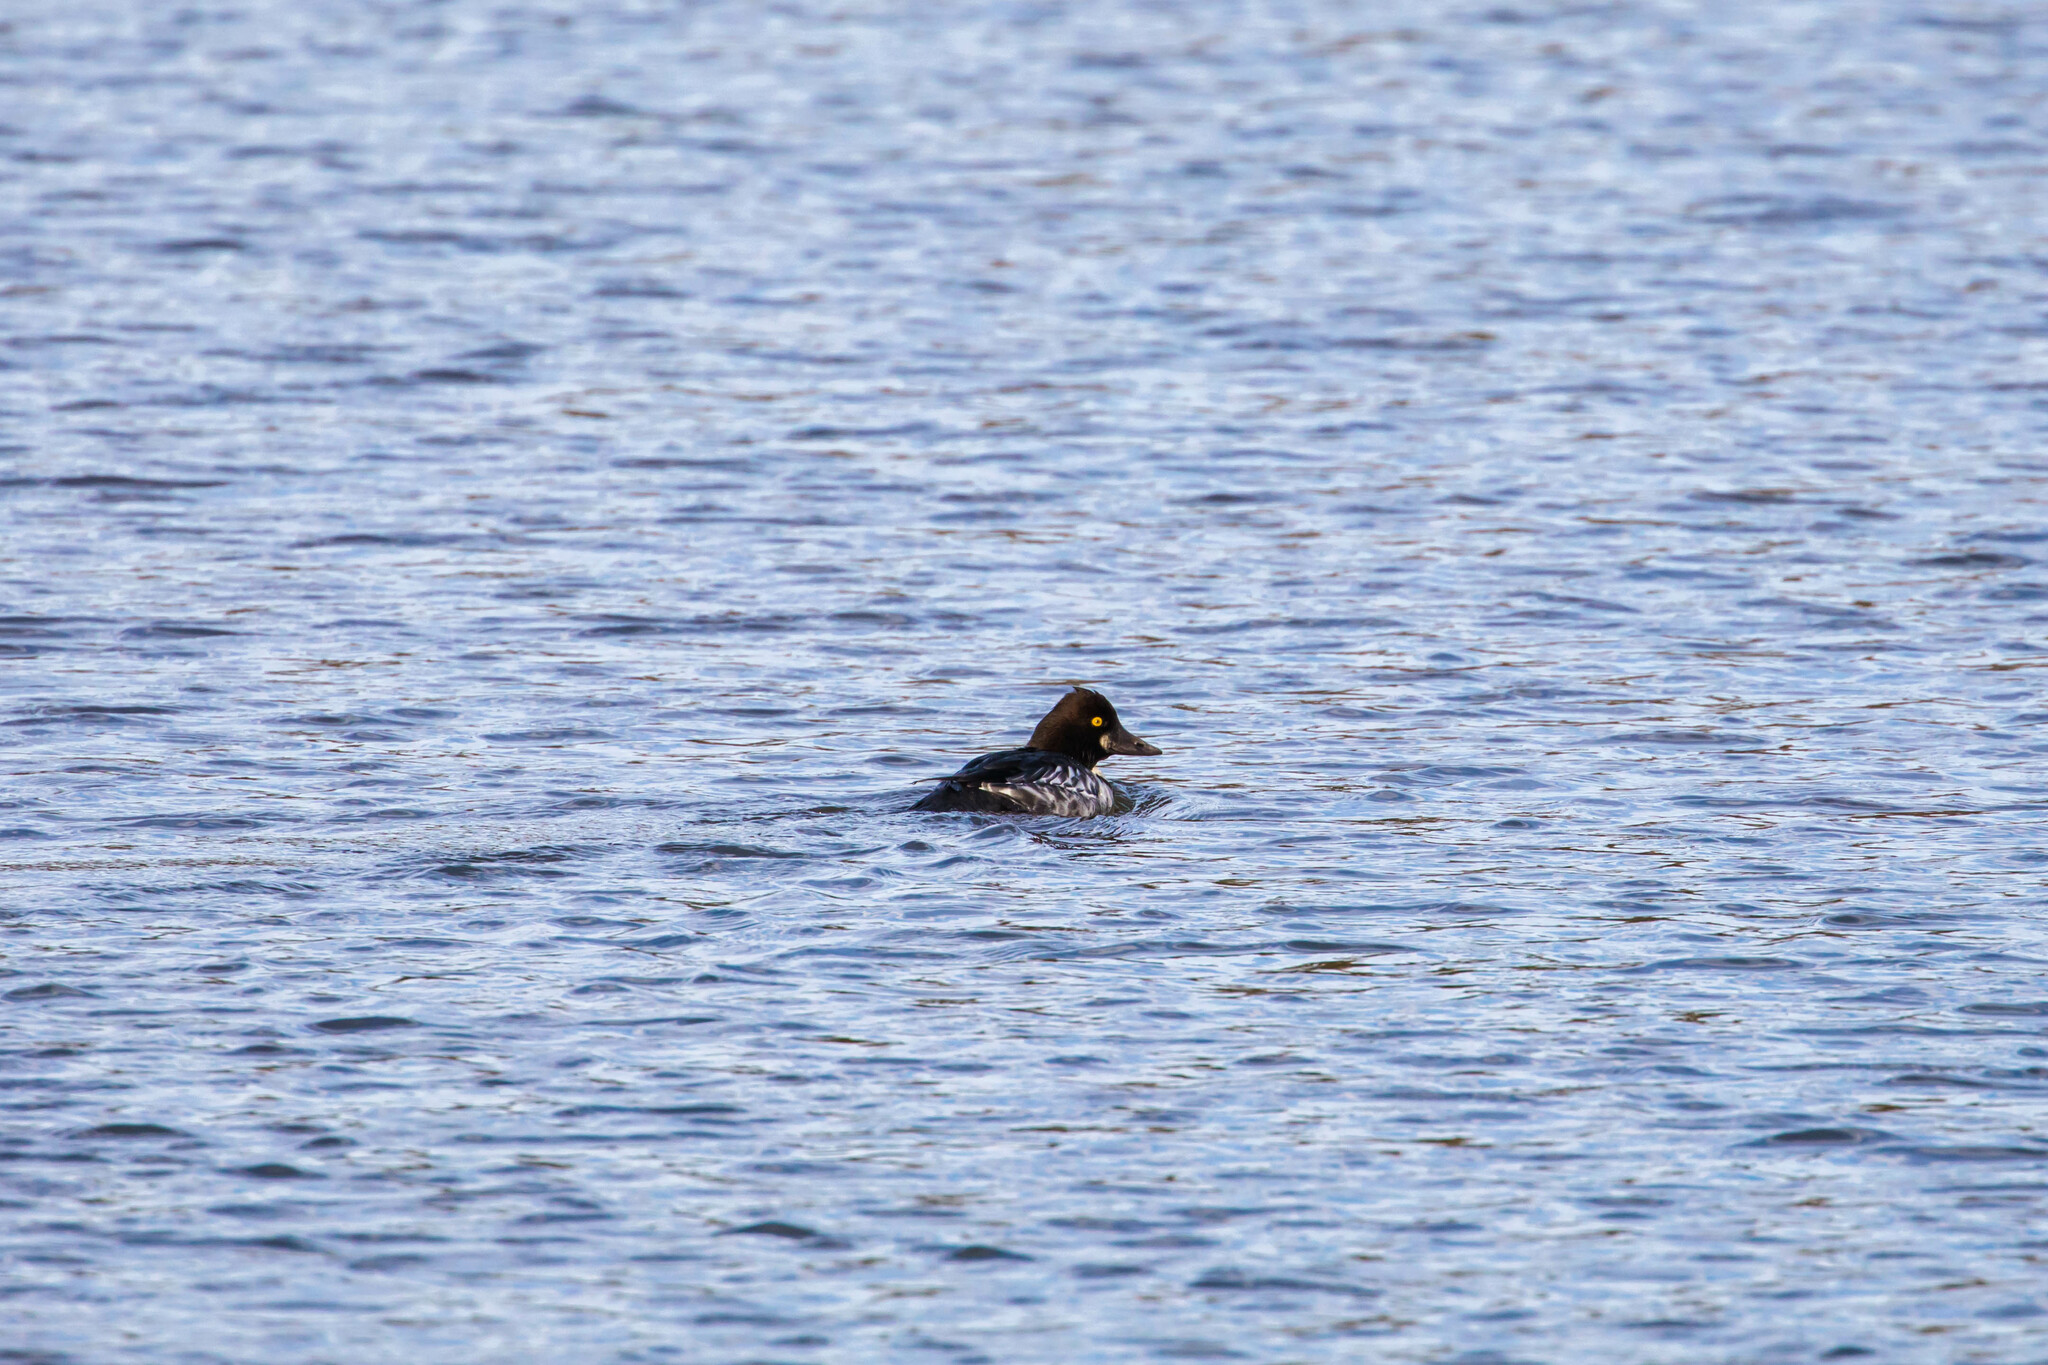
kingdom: Animalia
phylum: Chordata
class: Aves
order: Anseriformes
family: Anatidae
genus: Bucephala
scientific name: Bucephala clangula
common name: Common goldeneye
